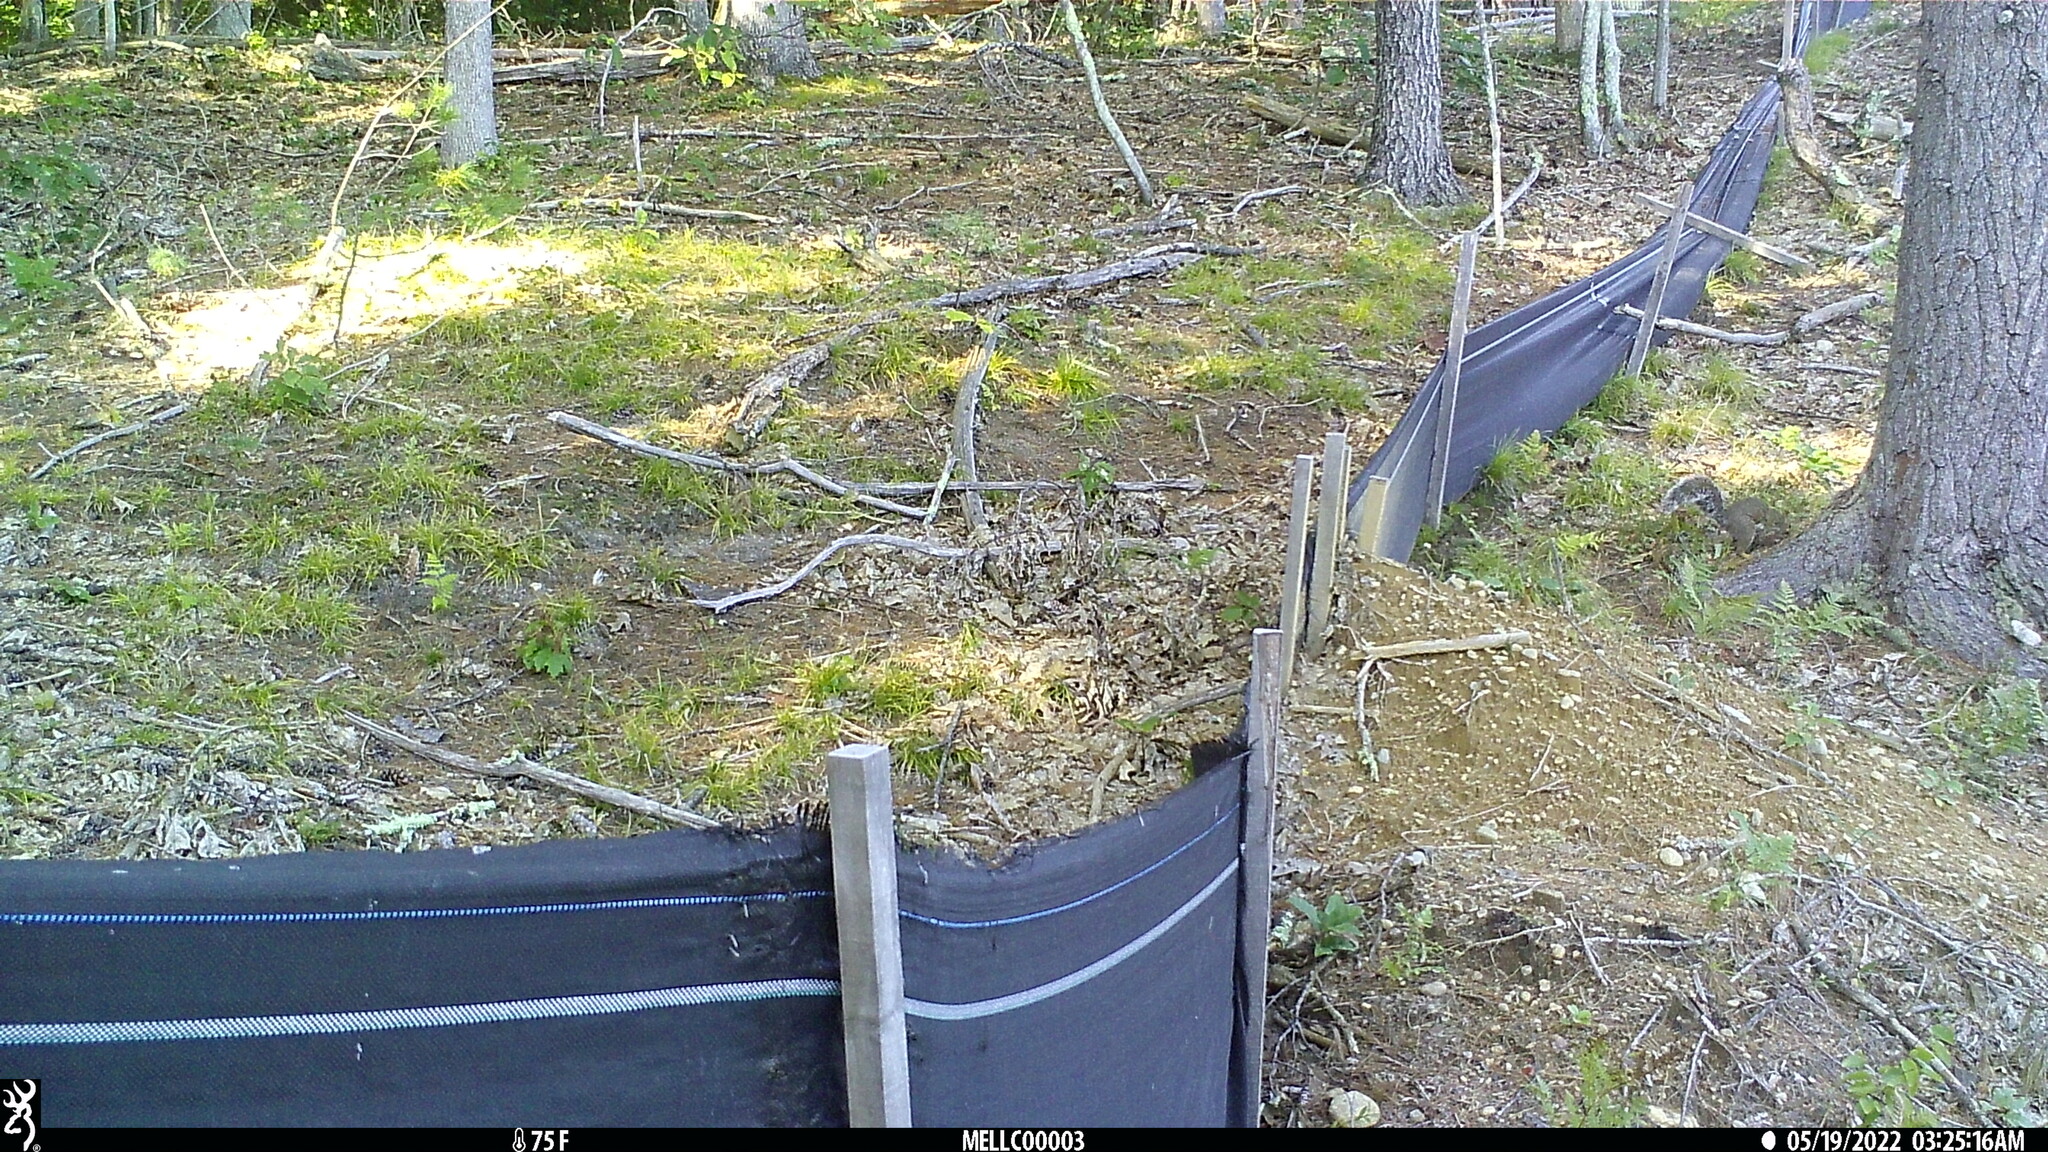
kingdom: Animalia
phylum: Chordata
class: Mammalia
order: Rodentia
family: Sciuridae
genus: Sciurus
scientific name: Sciurus carolinensis
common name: Eastern gray squirrel
